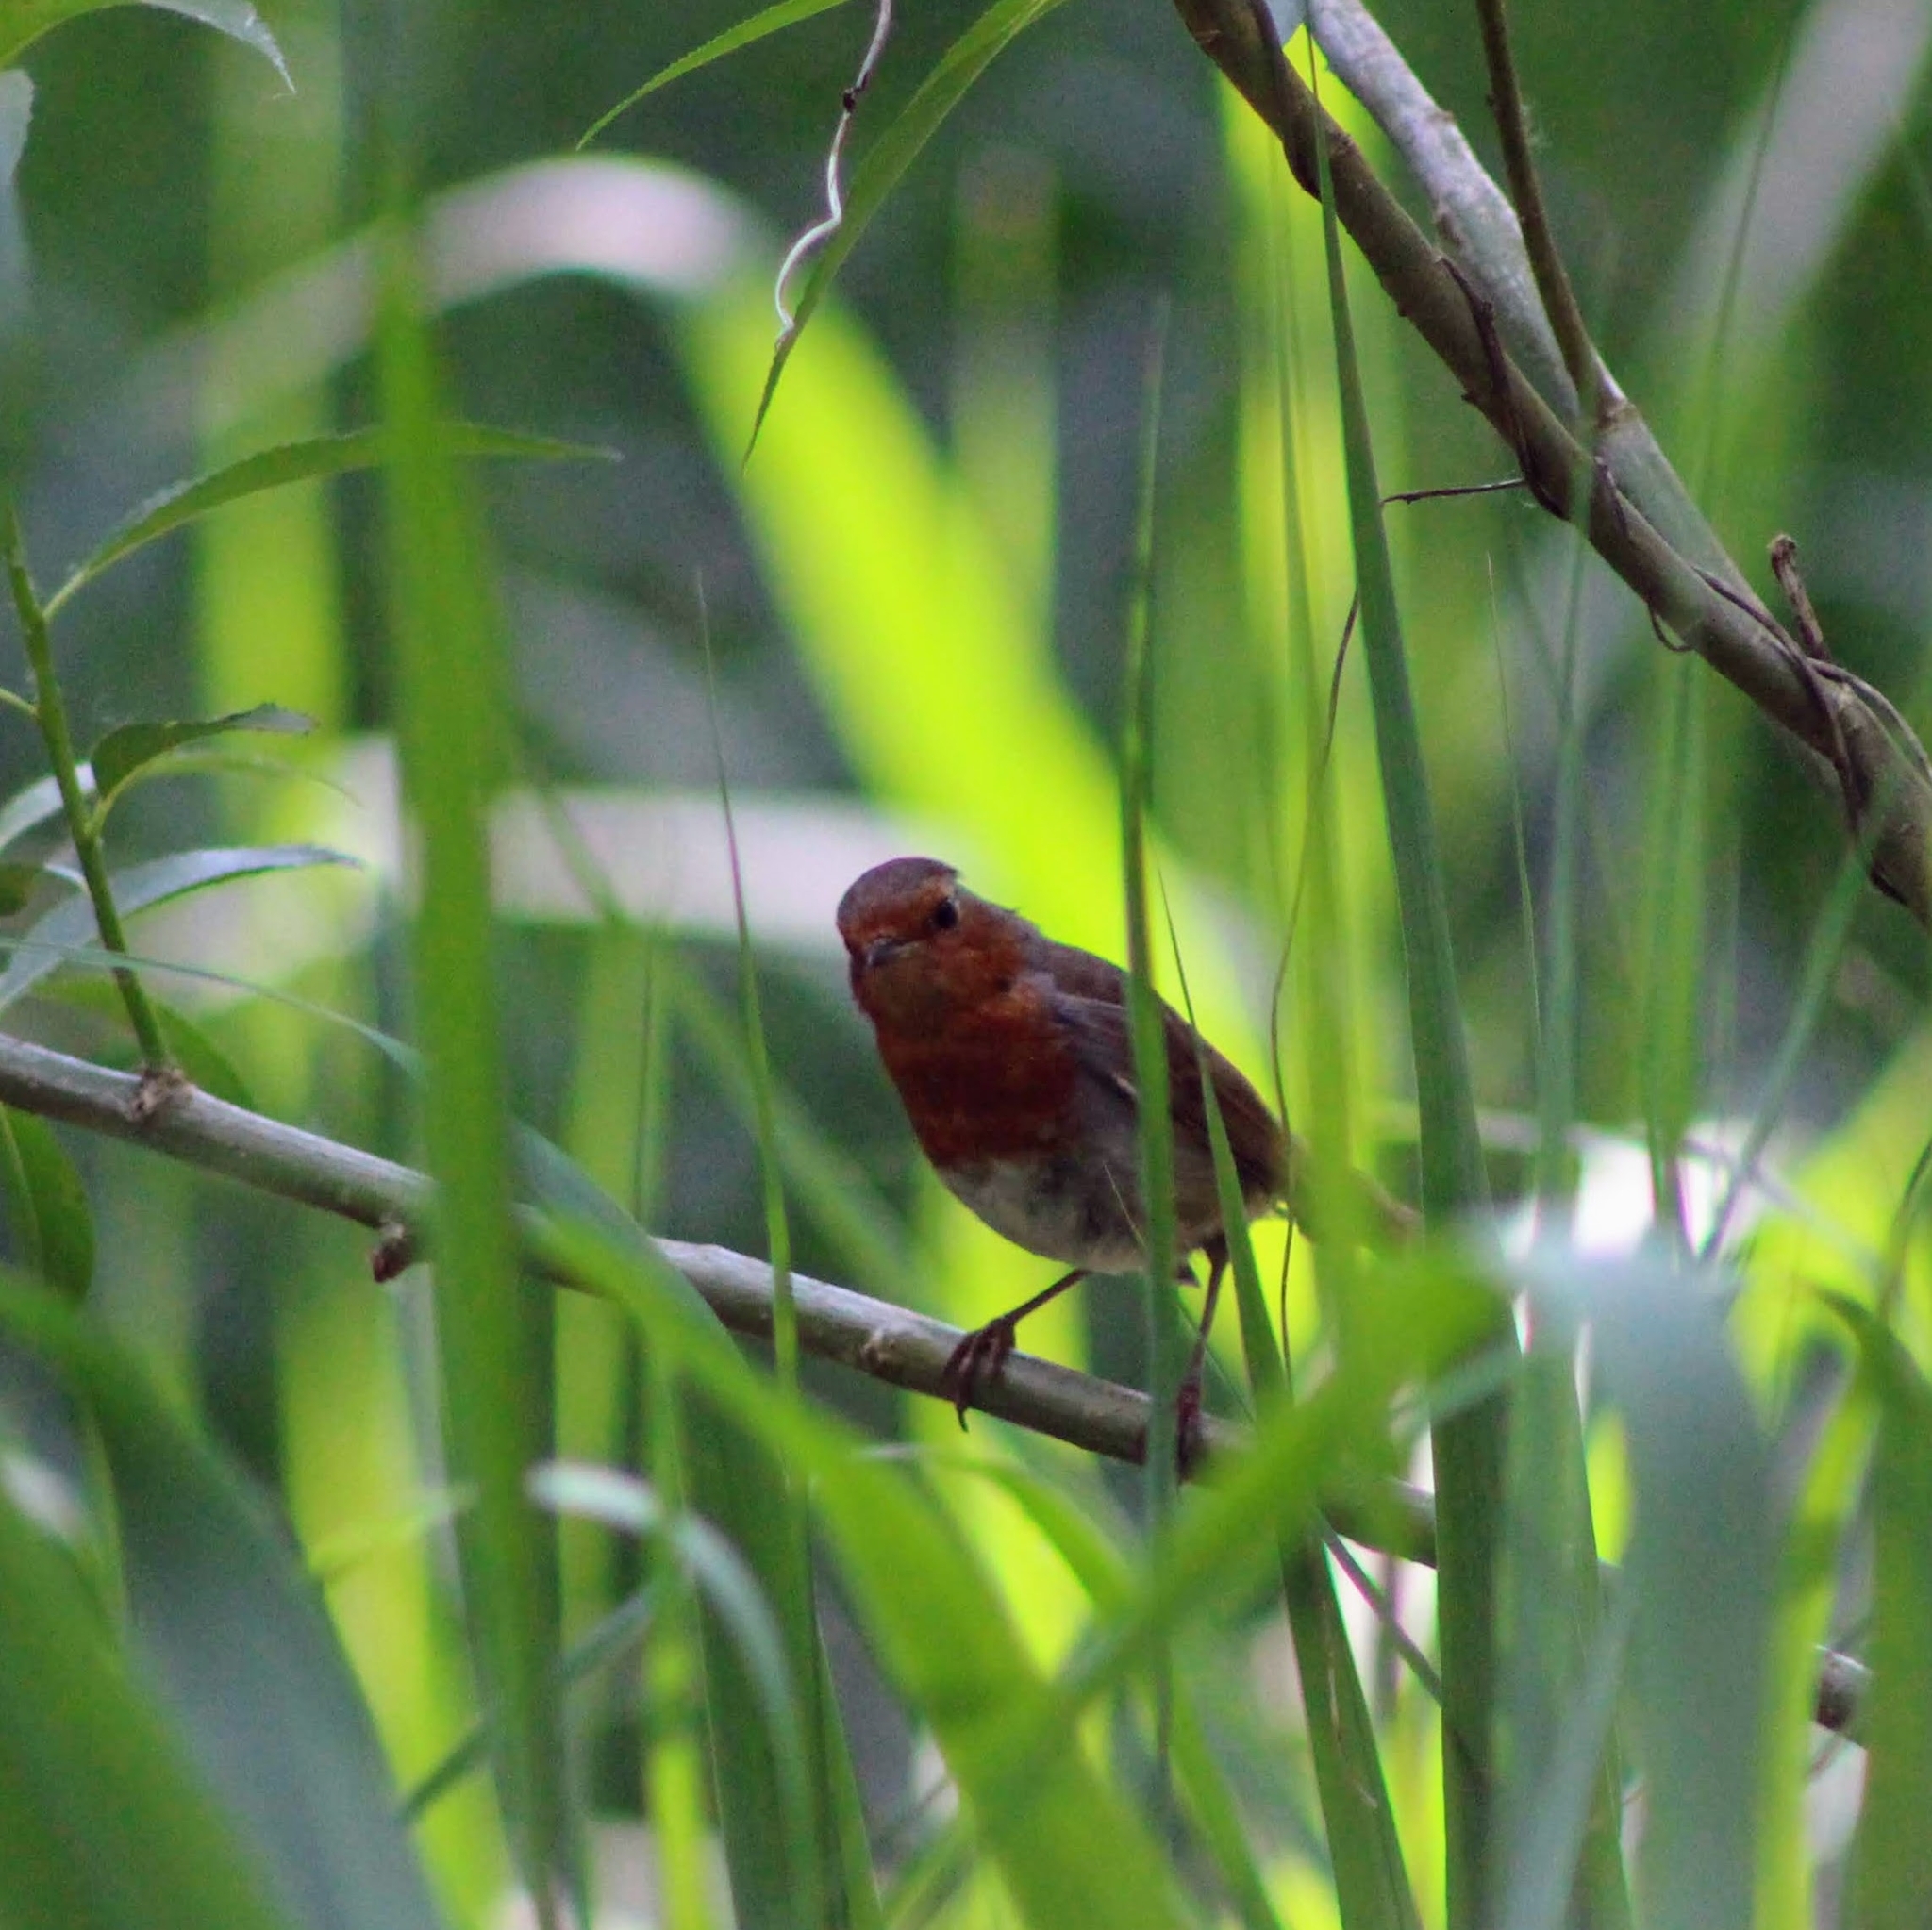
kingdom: Animalia
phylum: Chordata
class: Aves
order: Passeriformes
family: Muscicapidae
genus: Erithacus
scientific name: Erithacus rubecula
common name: European robin
